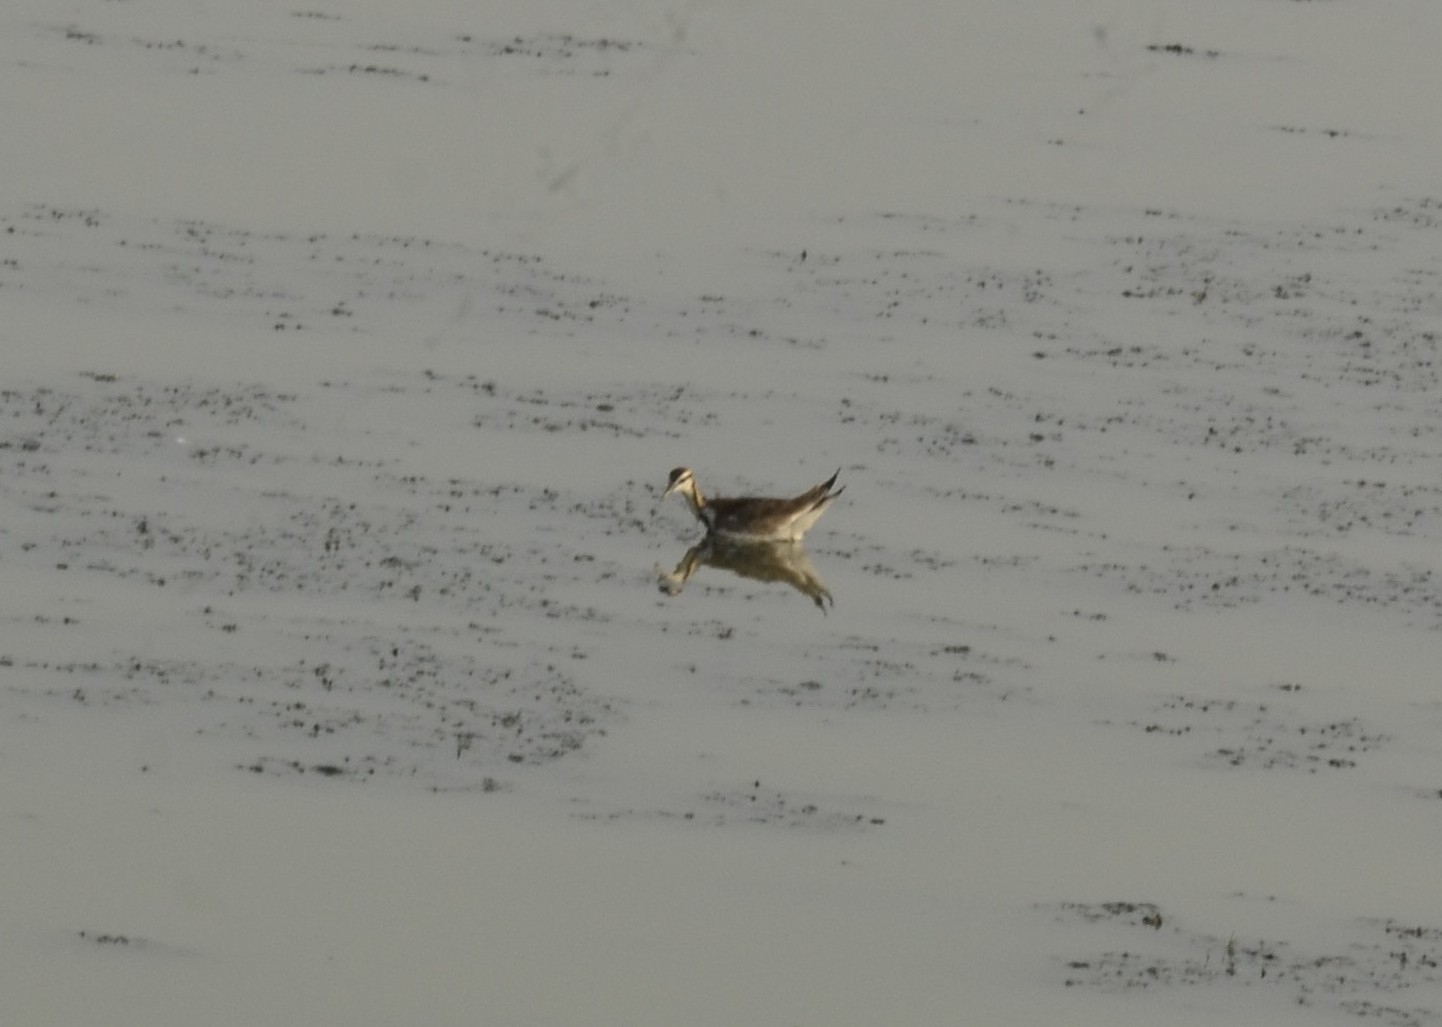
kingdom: Animalia
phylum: Chordata
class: Aves
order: Charadriiformes
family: Jacanidae
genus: Hydrophasianus
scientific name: Hydrophasianus chirurgus
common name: Pheasant-tailed jacana
